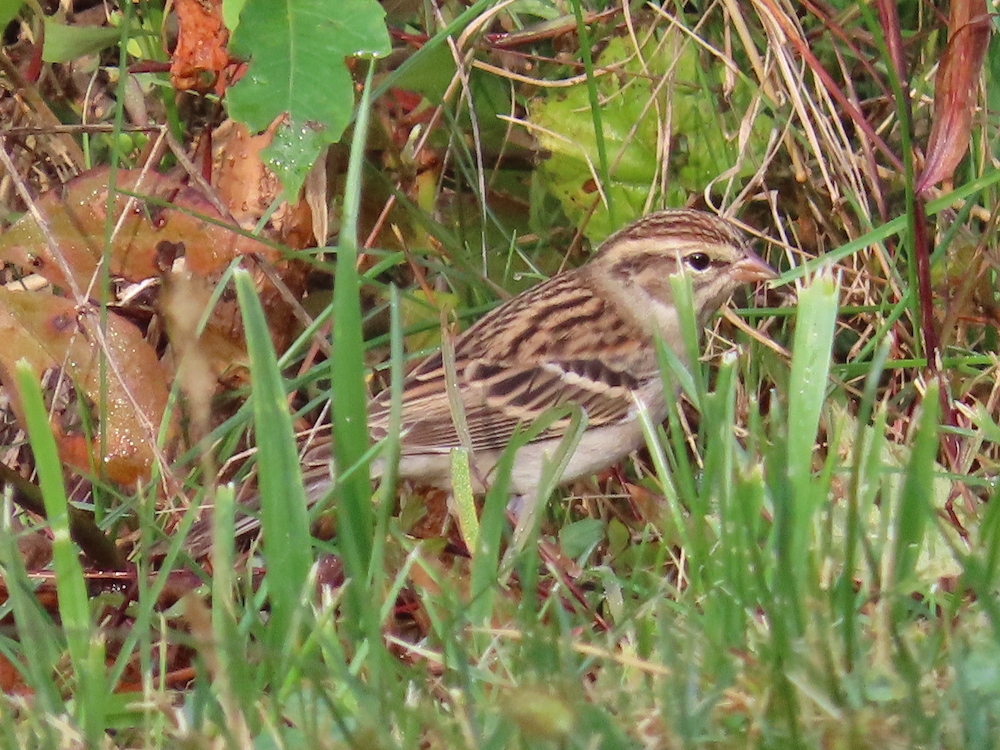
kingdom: Animalia
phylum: Chordata
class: Aves
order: Passeriformes
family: Passerellidae
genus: Spizella
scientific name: Spizella passerina
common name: Chipping sparrow
